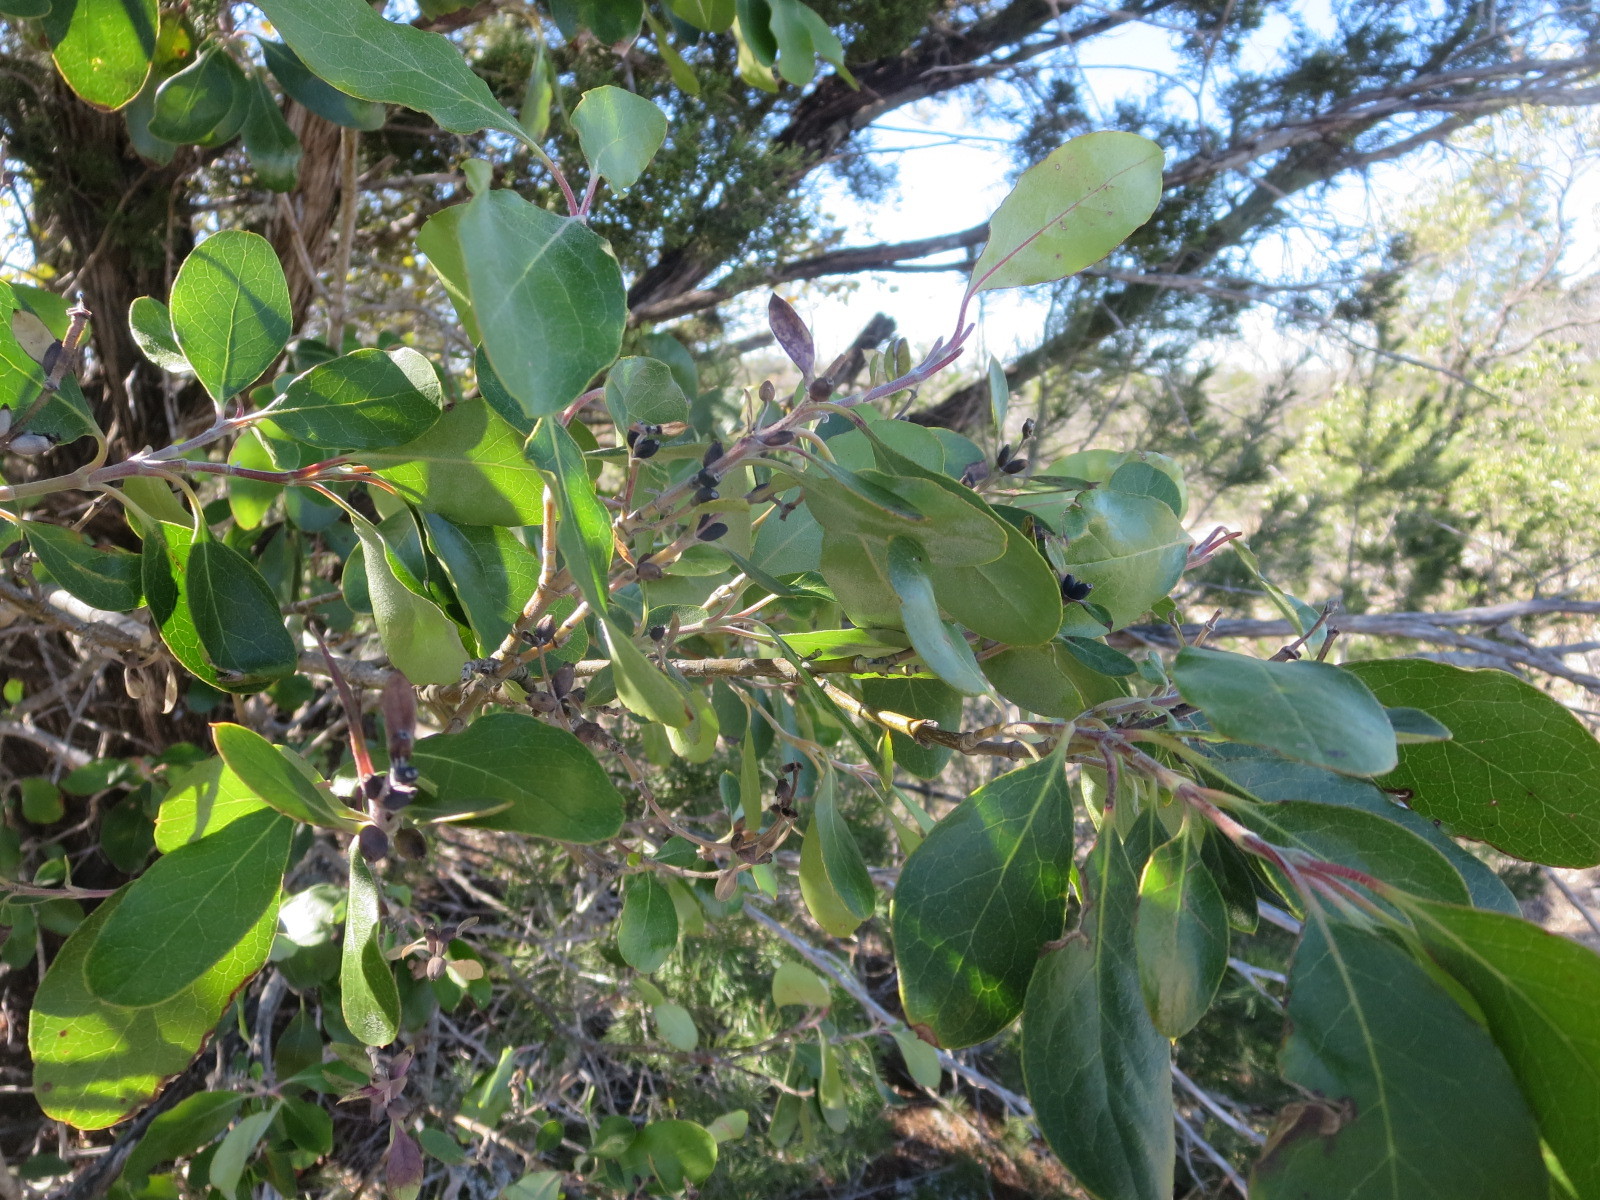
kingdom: Plantae
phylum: Tracheophyta
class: Magnoliopsida
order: Garryales
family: Garryaceae
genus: Garrya
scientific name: Garrya lindheimeri
